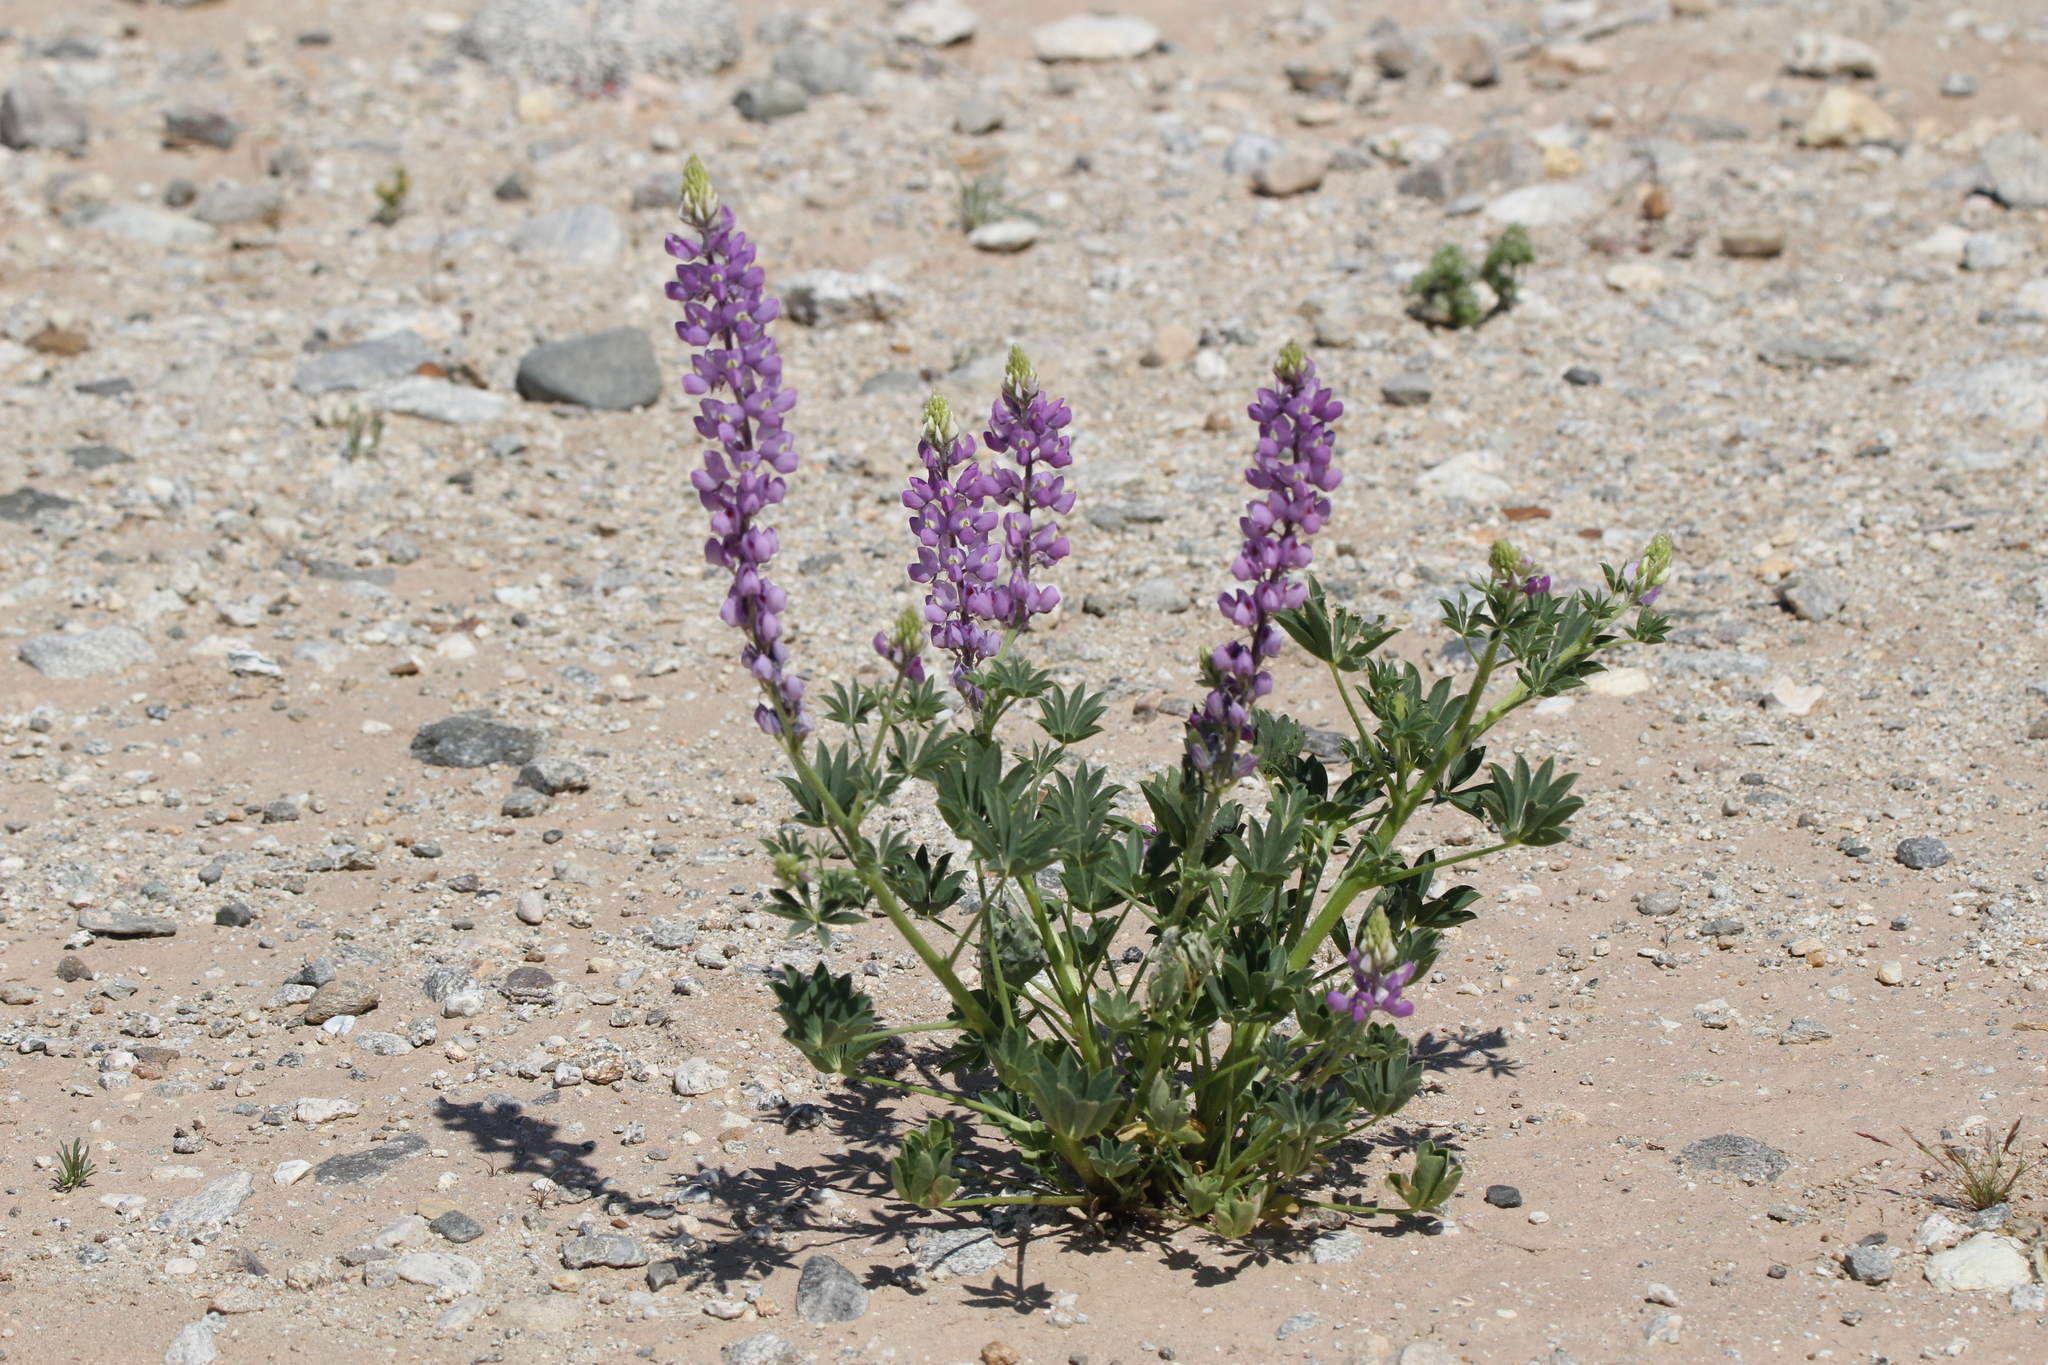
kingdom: Plantae
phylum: Tracheophyta
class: Magnoliopsida
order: Fabales
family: Fabaceae
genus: Lupinus
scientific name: Lupinus arizonicus
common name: Arizona lupine
